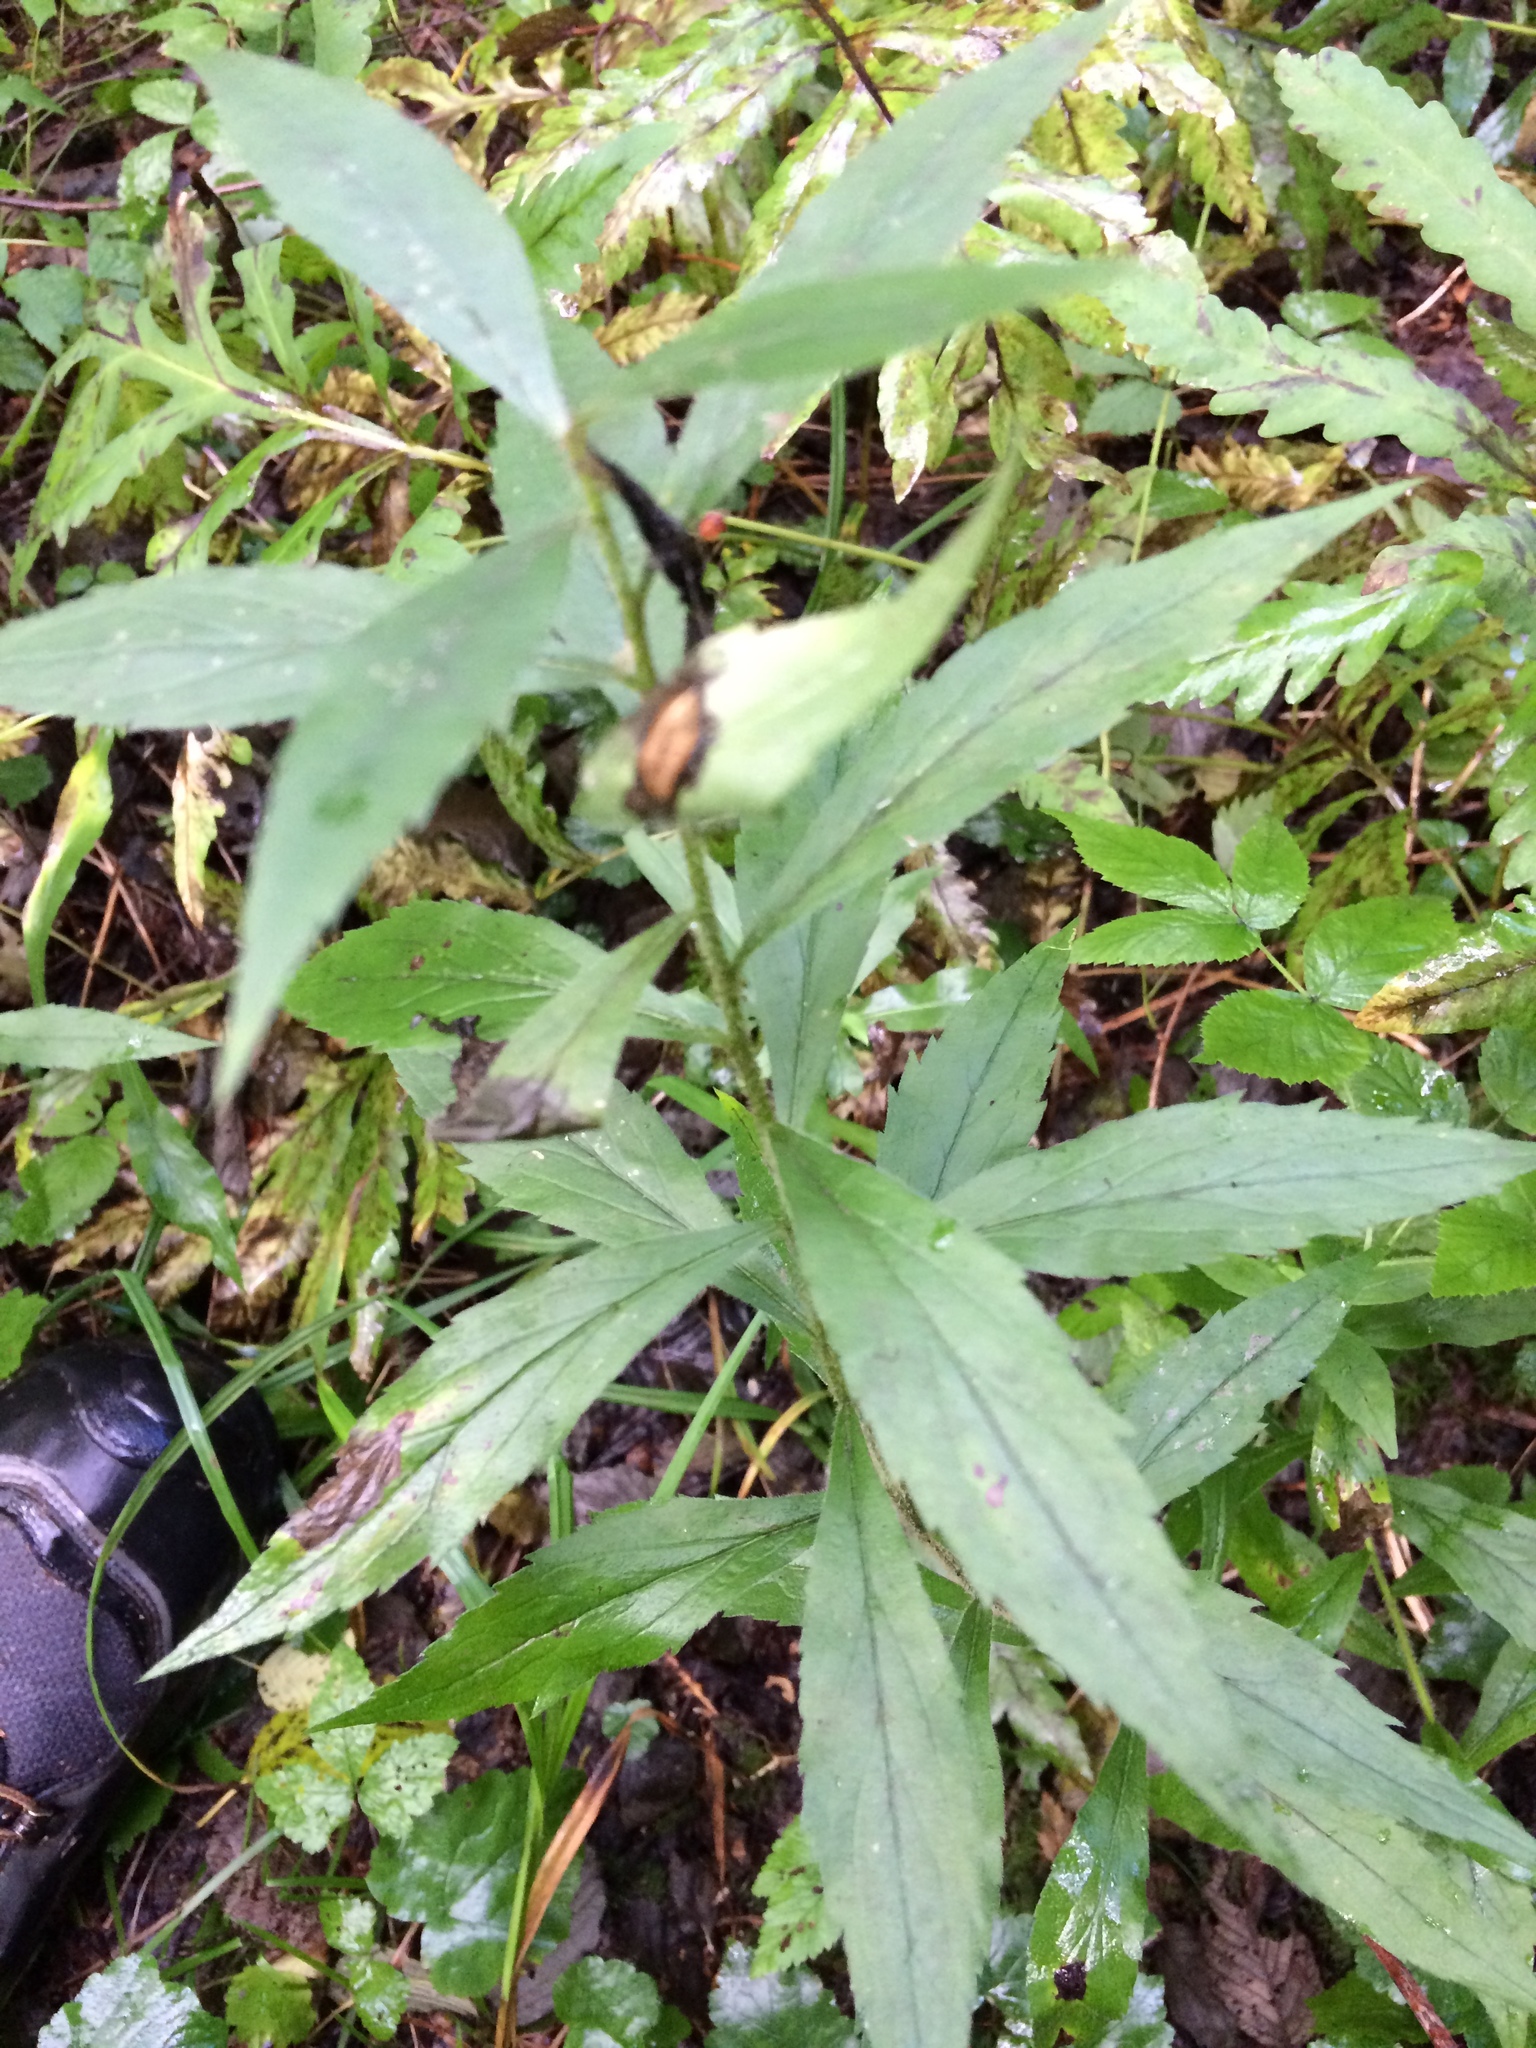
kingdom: Plantae
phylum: Tracheophyta
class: Magnoliopsida
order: Asterales
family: Asteraceae
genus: Solidago
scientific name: Solidago rugosa
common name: Rough-stemmed goldenrod
